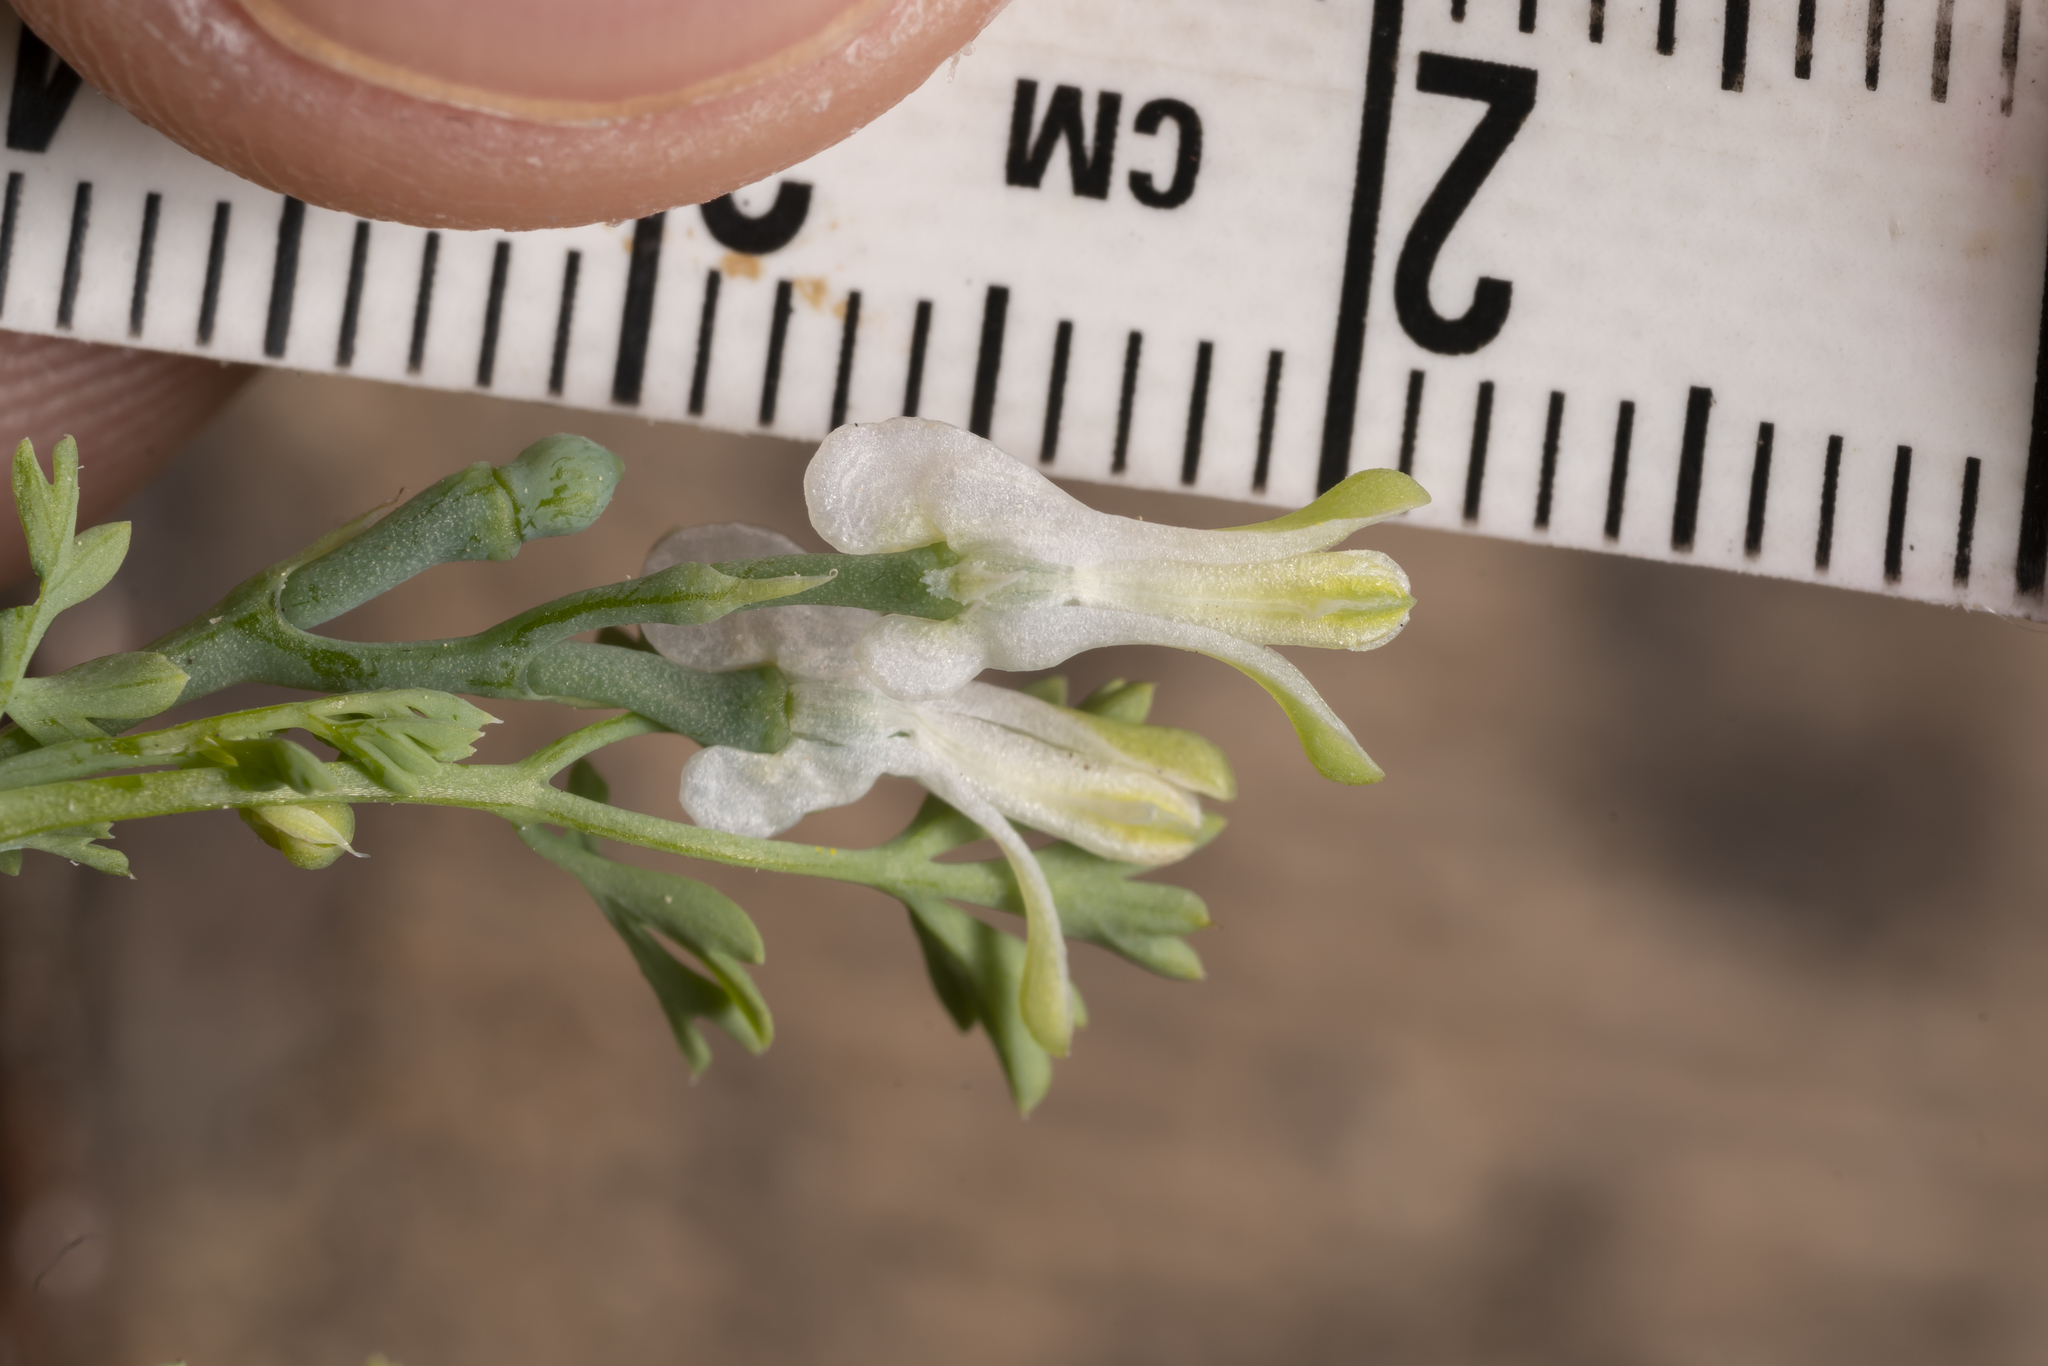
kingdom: Plantae
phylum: Tracheophyta
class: Magnoliopsida
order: Ranunculales
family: Papaveraceae
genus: Fumaria
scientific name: Fumaria macrocarpa
